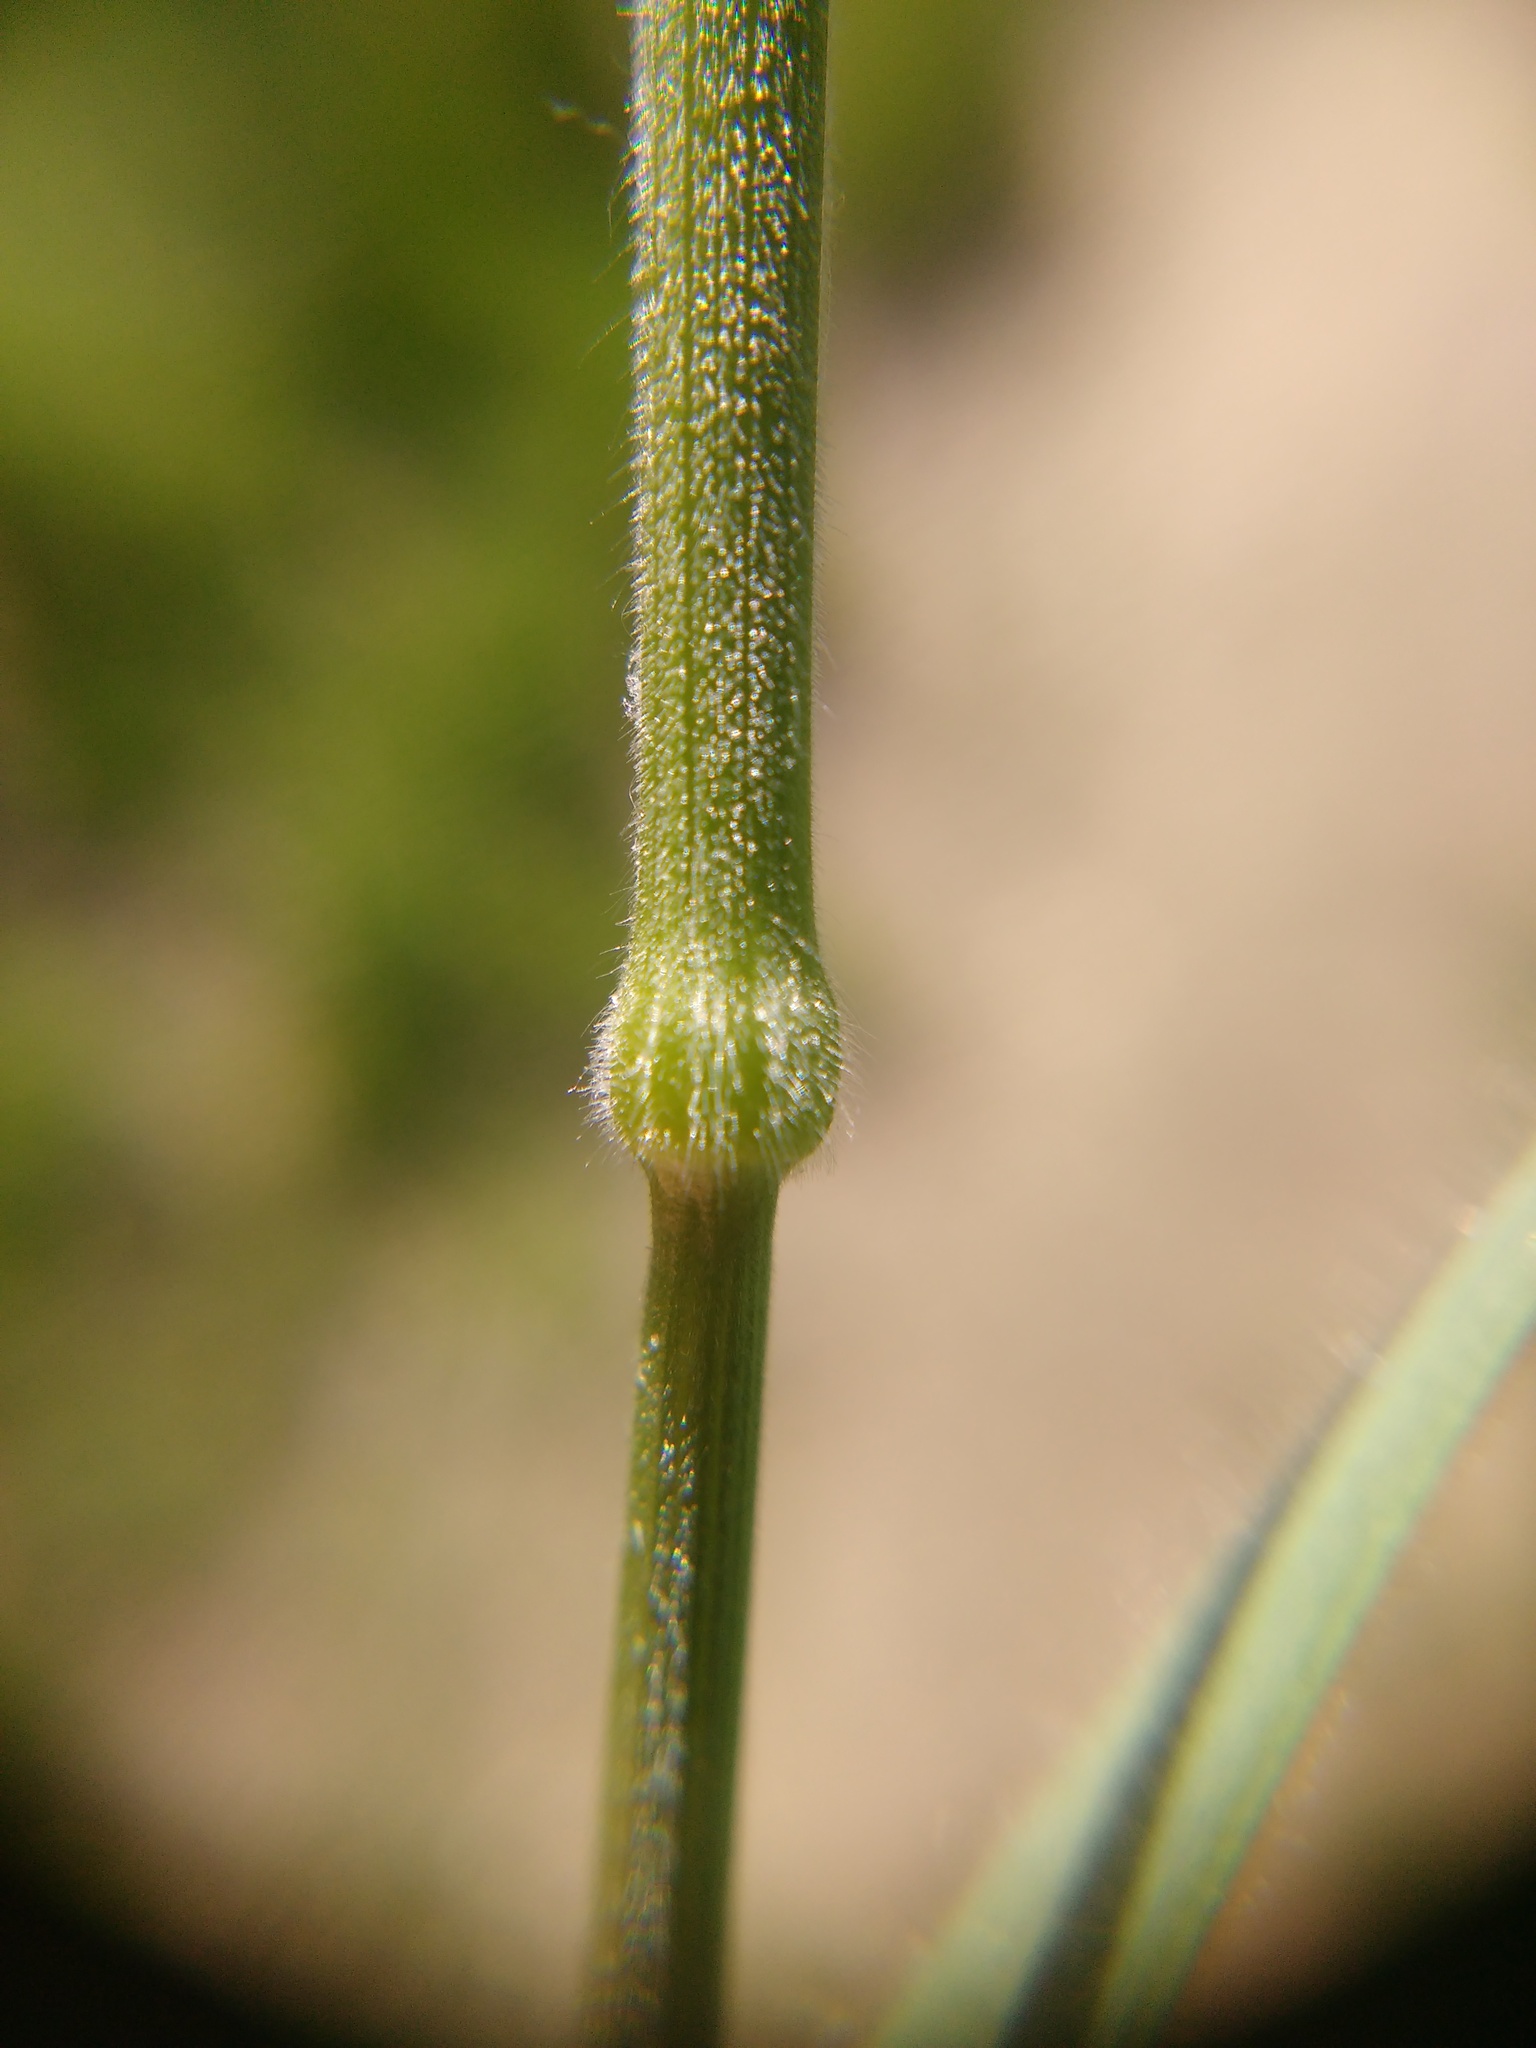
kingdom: Plantae
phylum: Tracheophyta
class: Liliopsida
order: Poales
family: Poaceae
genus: Bromus
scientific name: Bromus hordeaceus
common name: Soft brome
